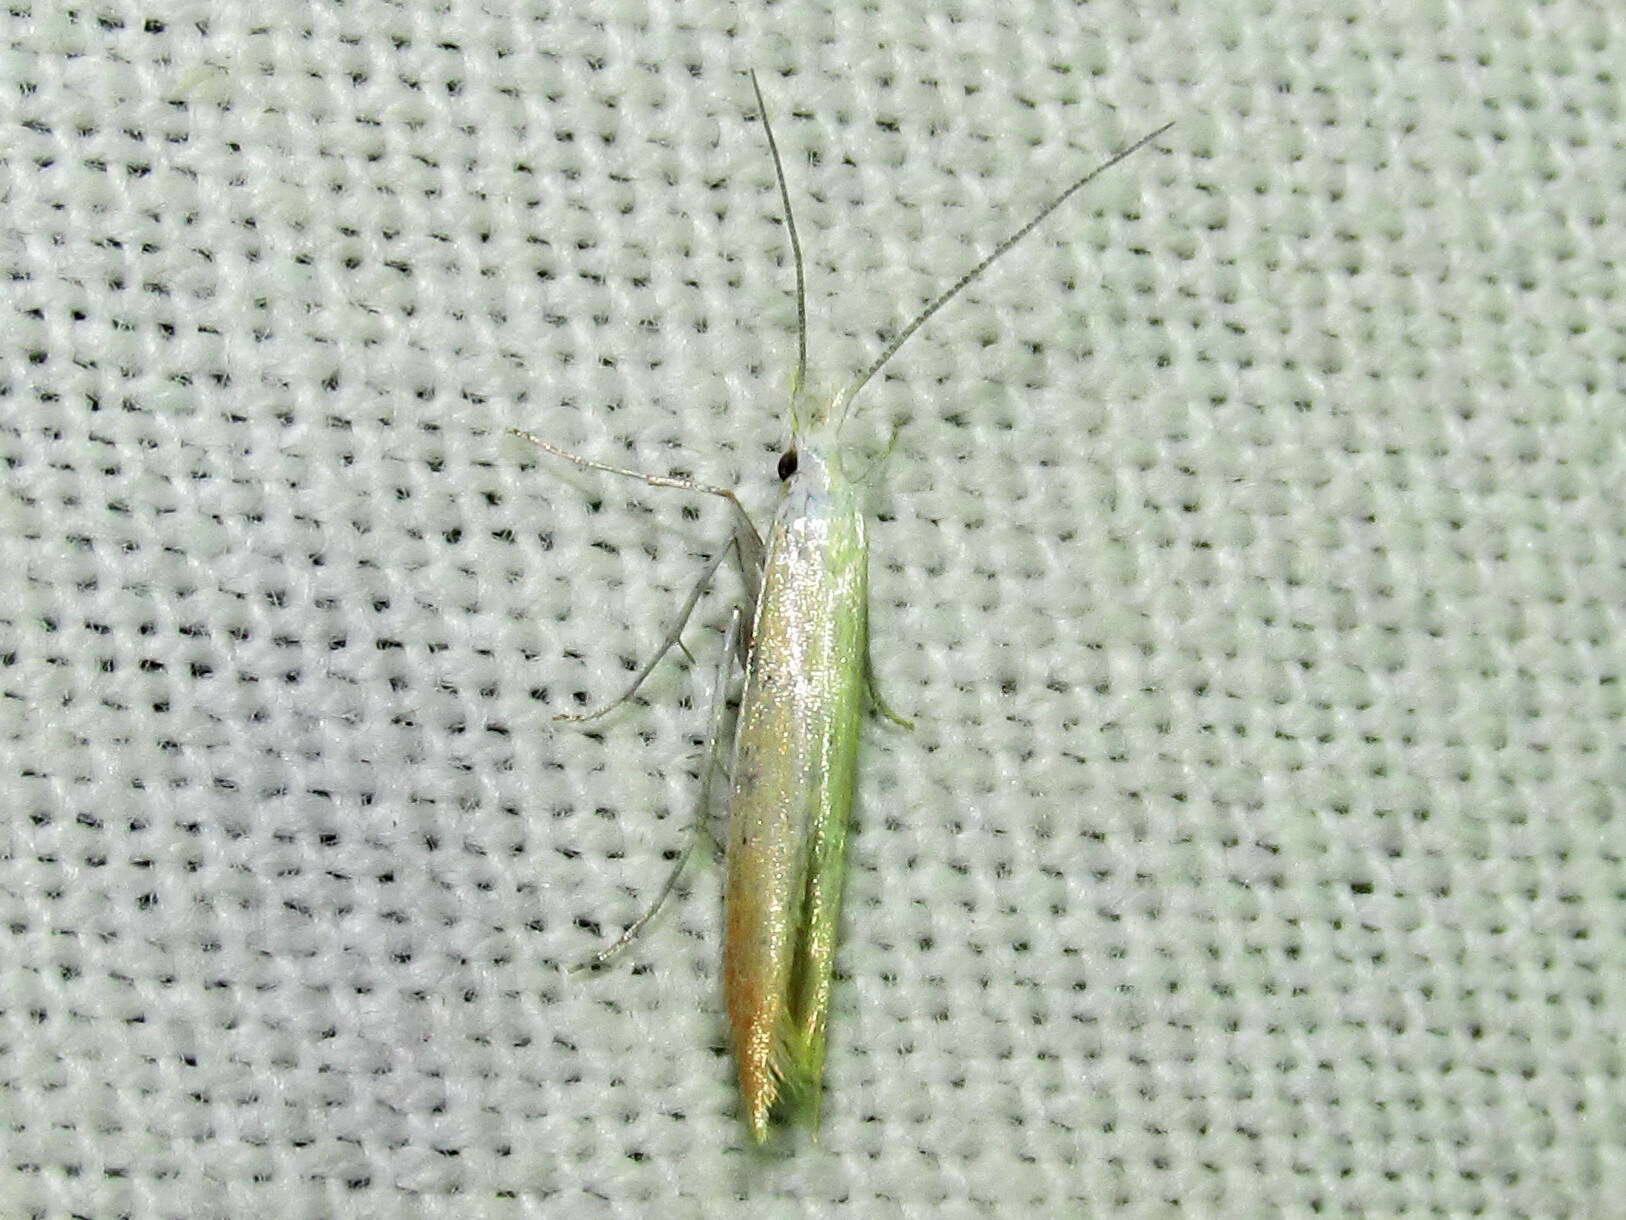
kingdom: Animalia
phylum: Arthropoda
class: Insecta
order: Lepidoptera
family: Coleophoridae
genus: Coleophora
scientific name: Coleophora coronillae
